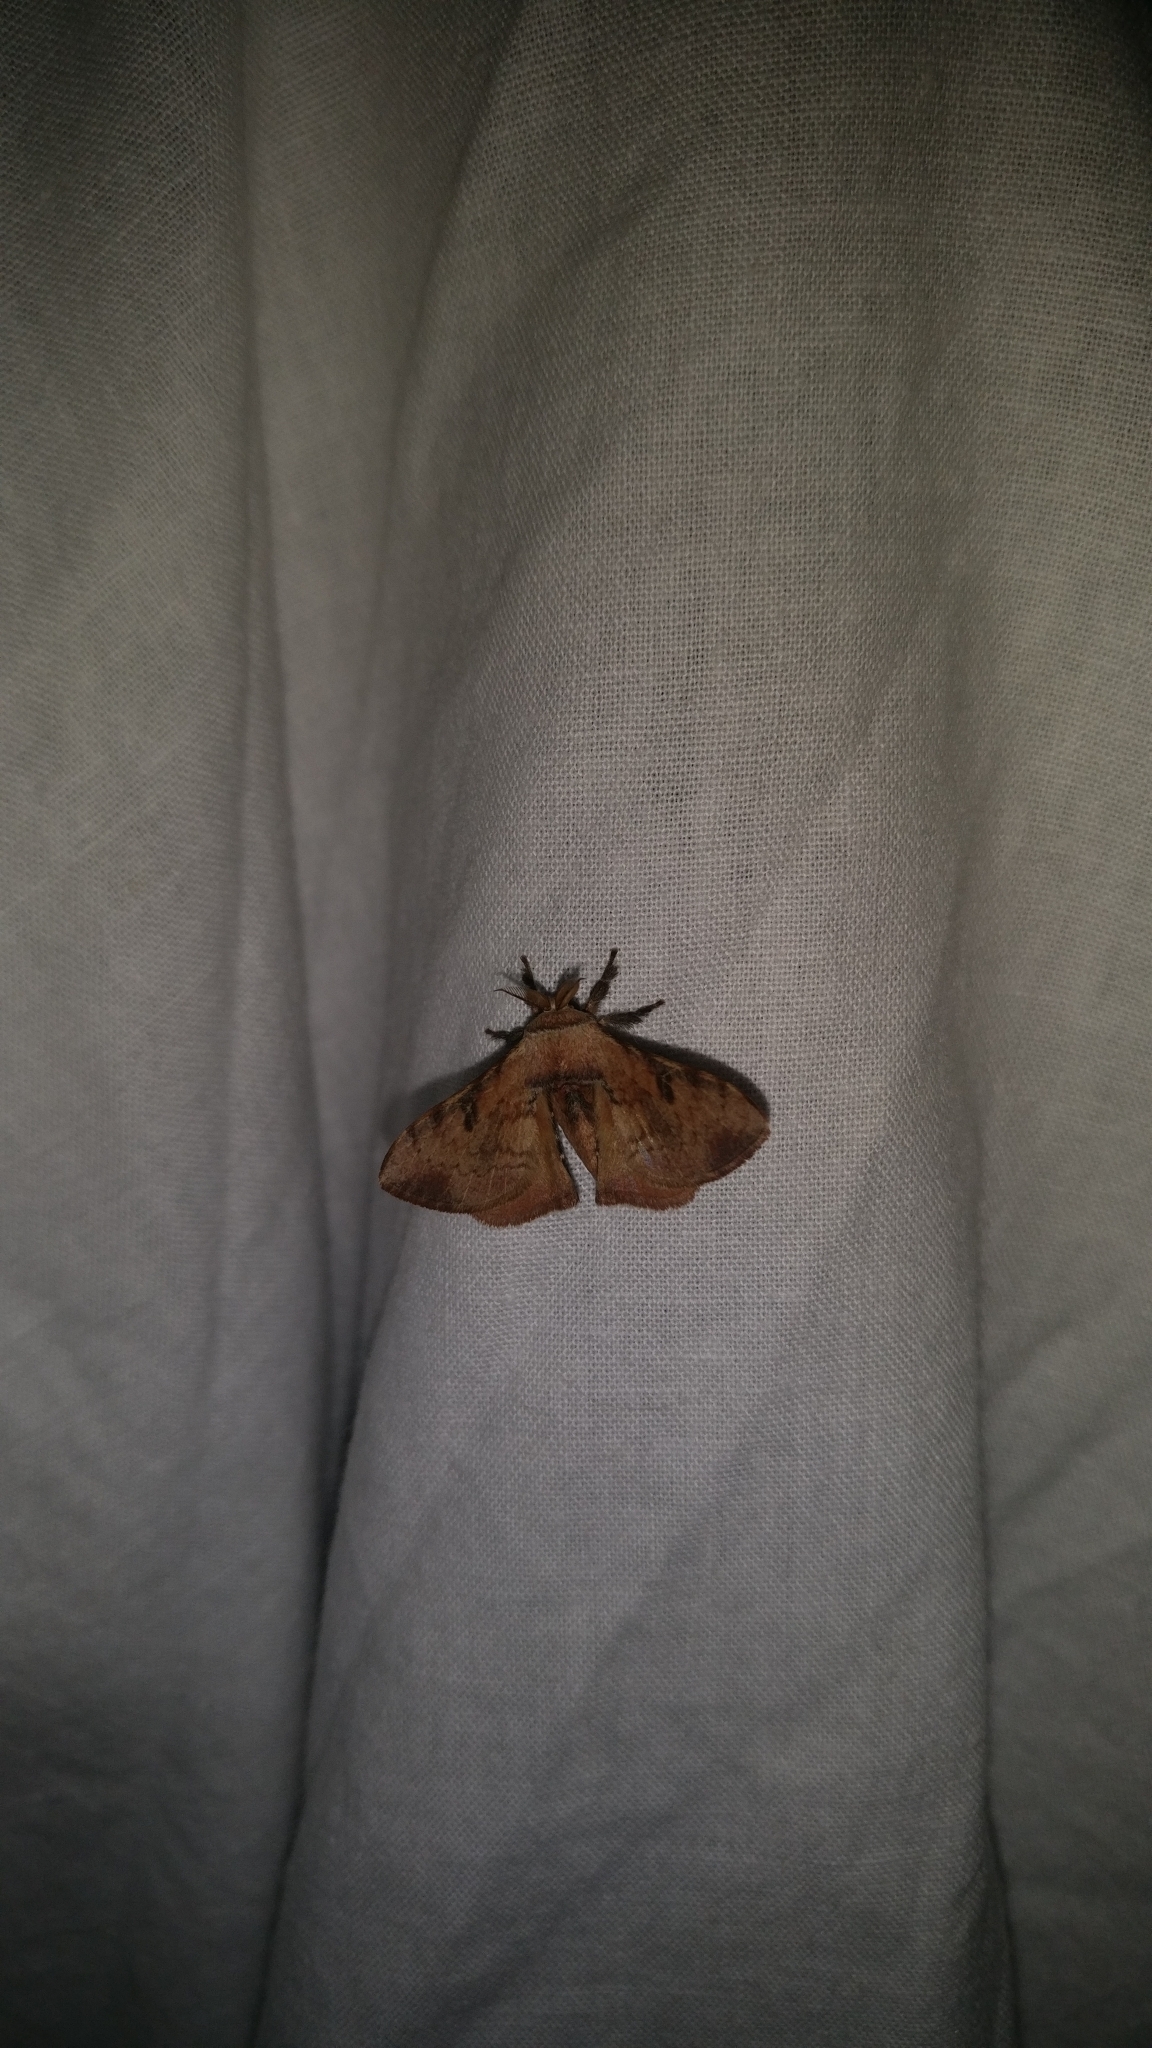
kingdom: Animalia
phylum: Arthropoda
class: Insecta
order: Lepidoptera
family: Bombycidae
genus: Trilocha
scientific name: Trilocha varians
